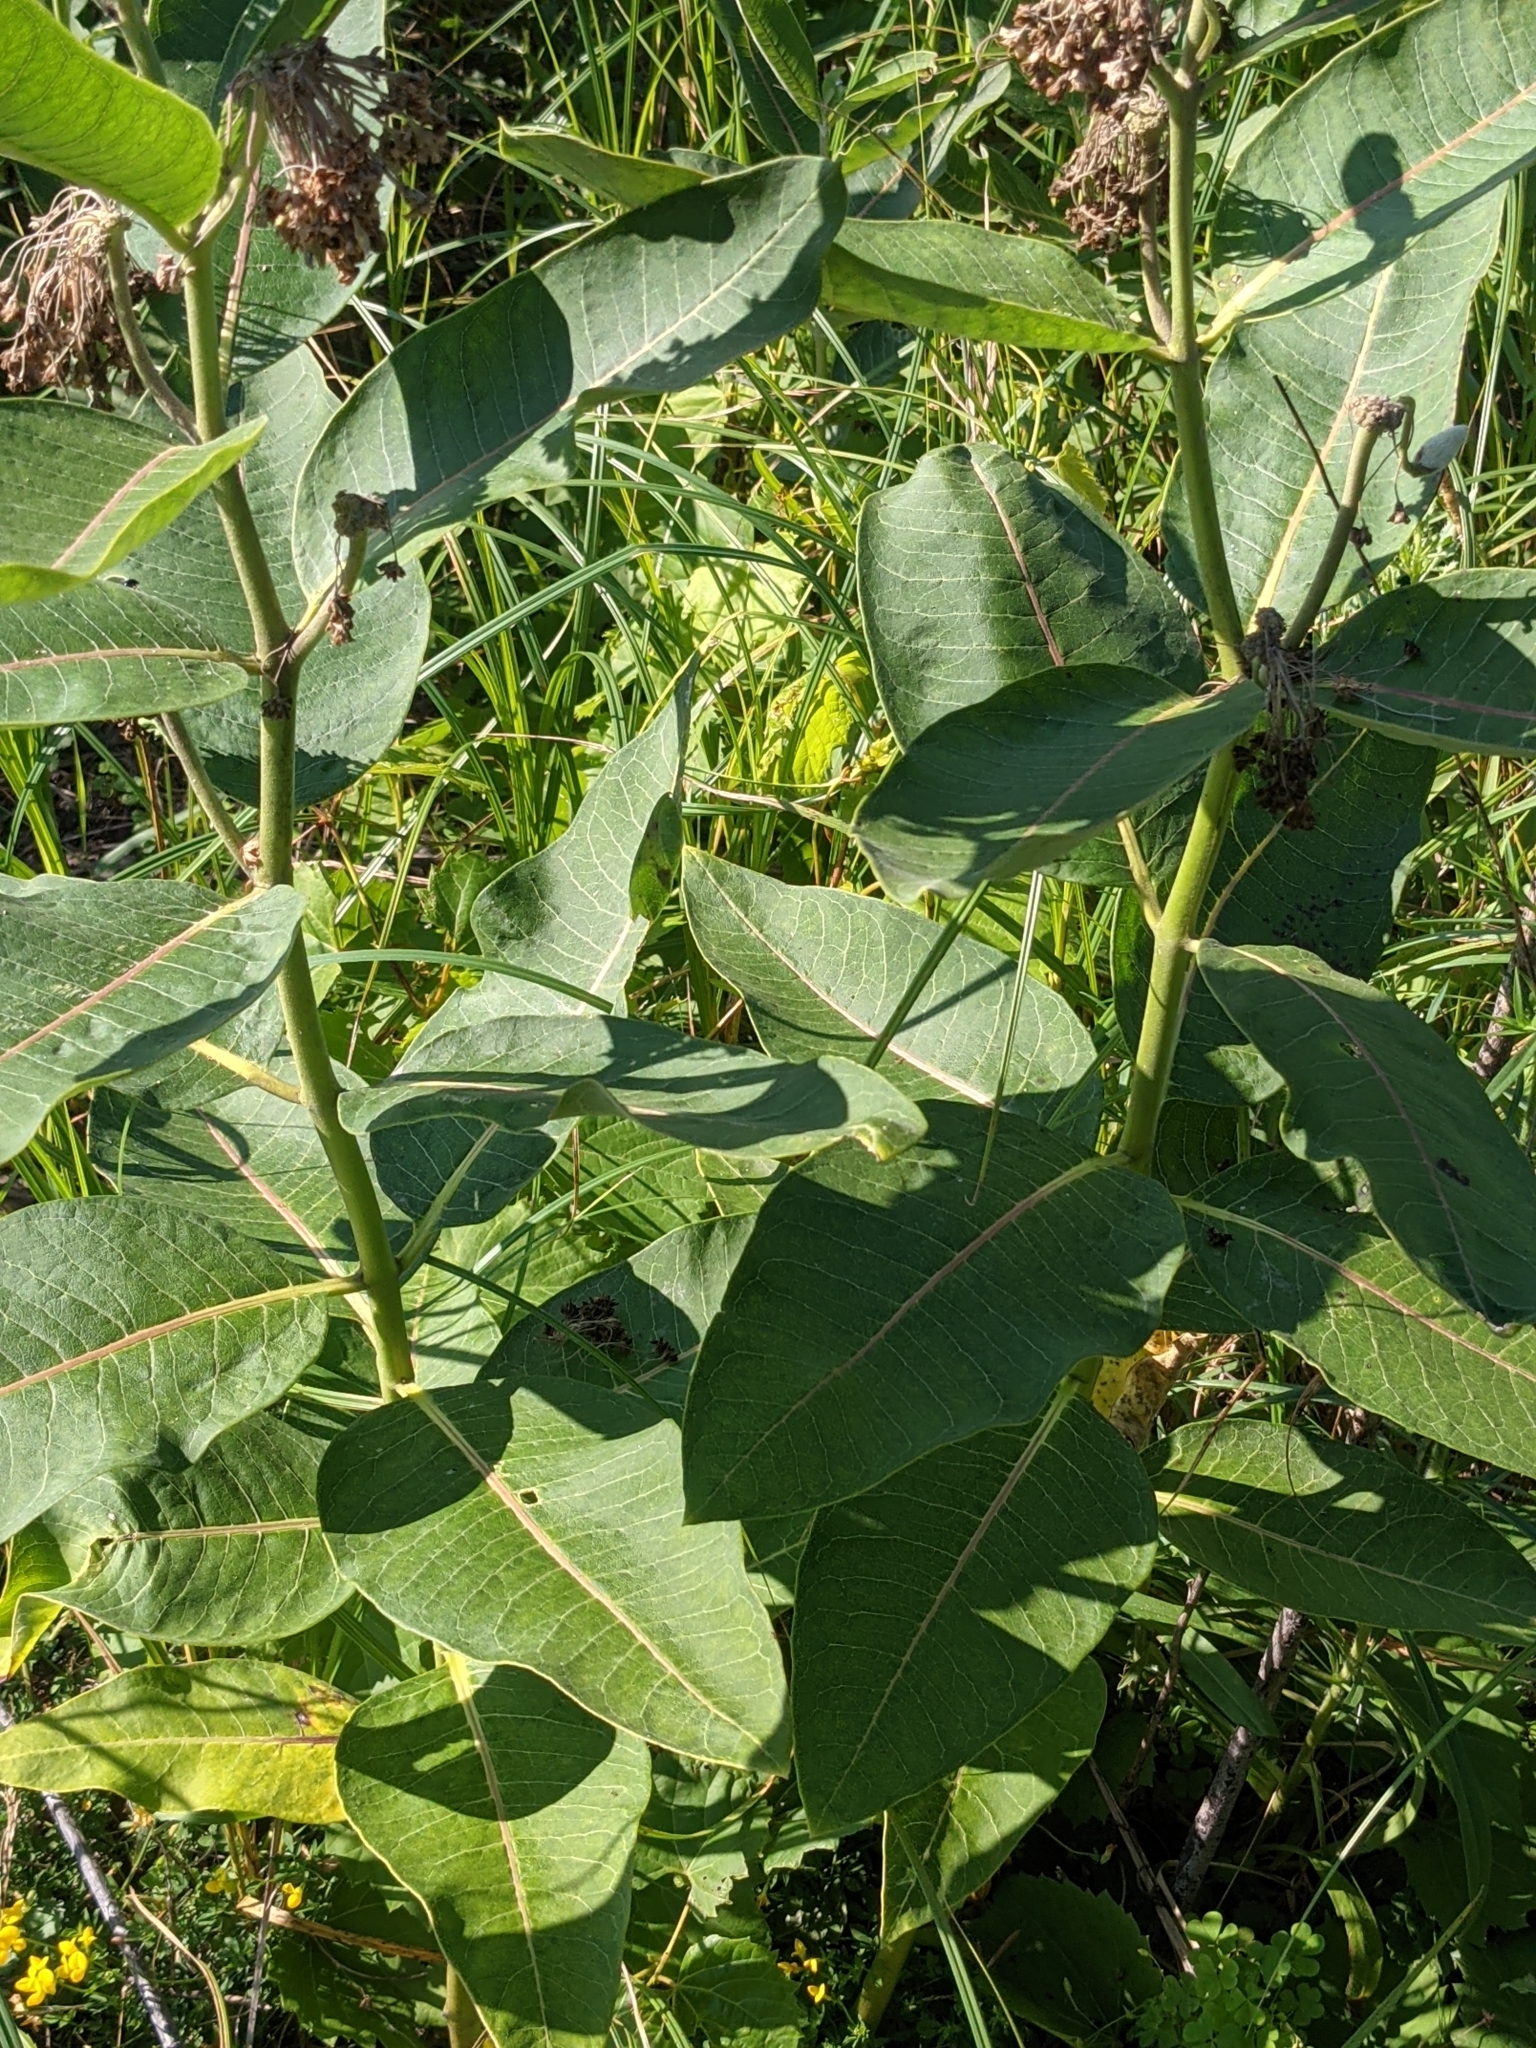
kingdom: Plantae
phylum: Tracheophyta
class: Magnoliopsida
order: Gentianales
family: Apocynaceae
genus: Asclepias
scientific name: Asclepias syriaca
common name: Common milkweed
